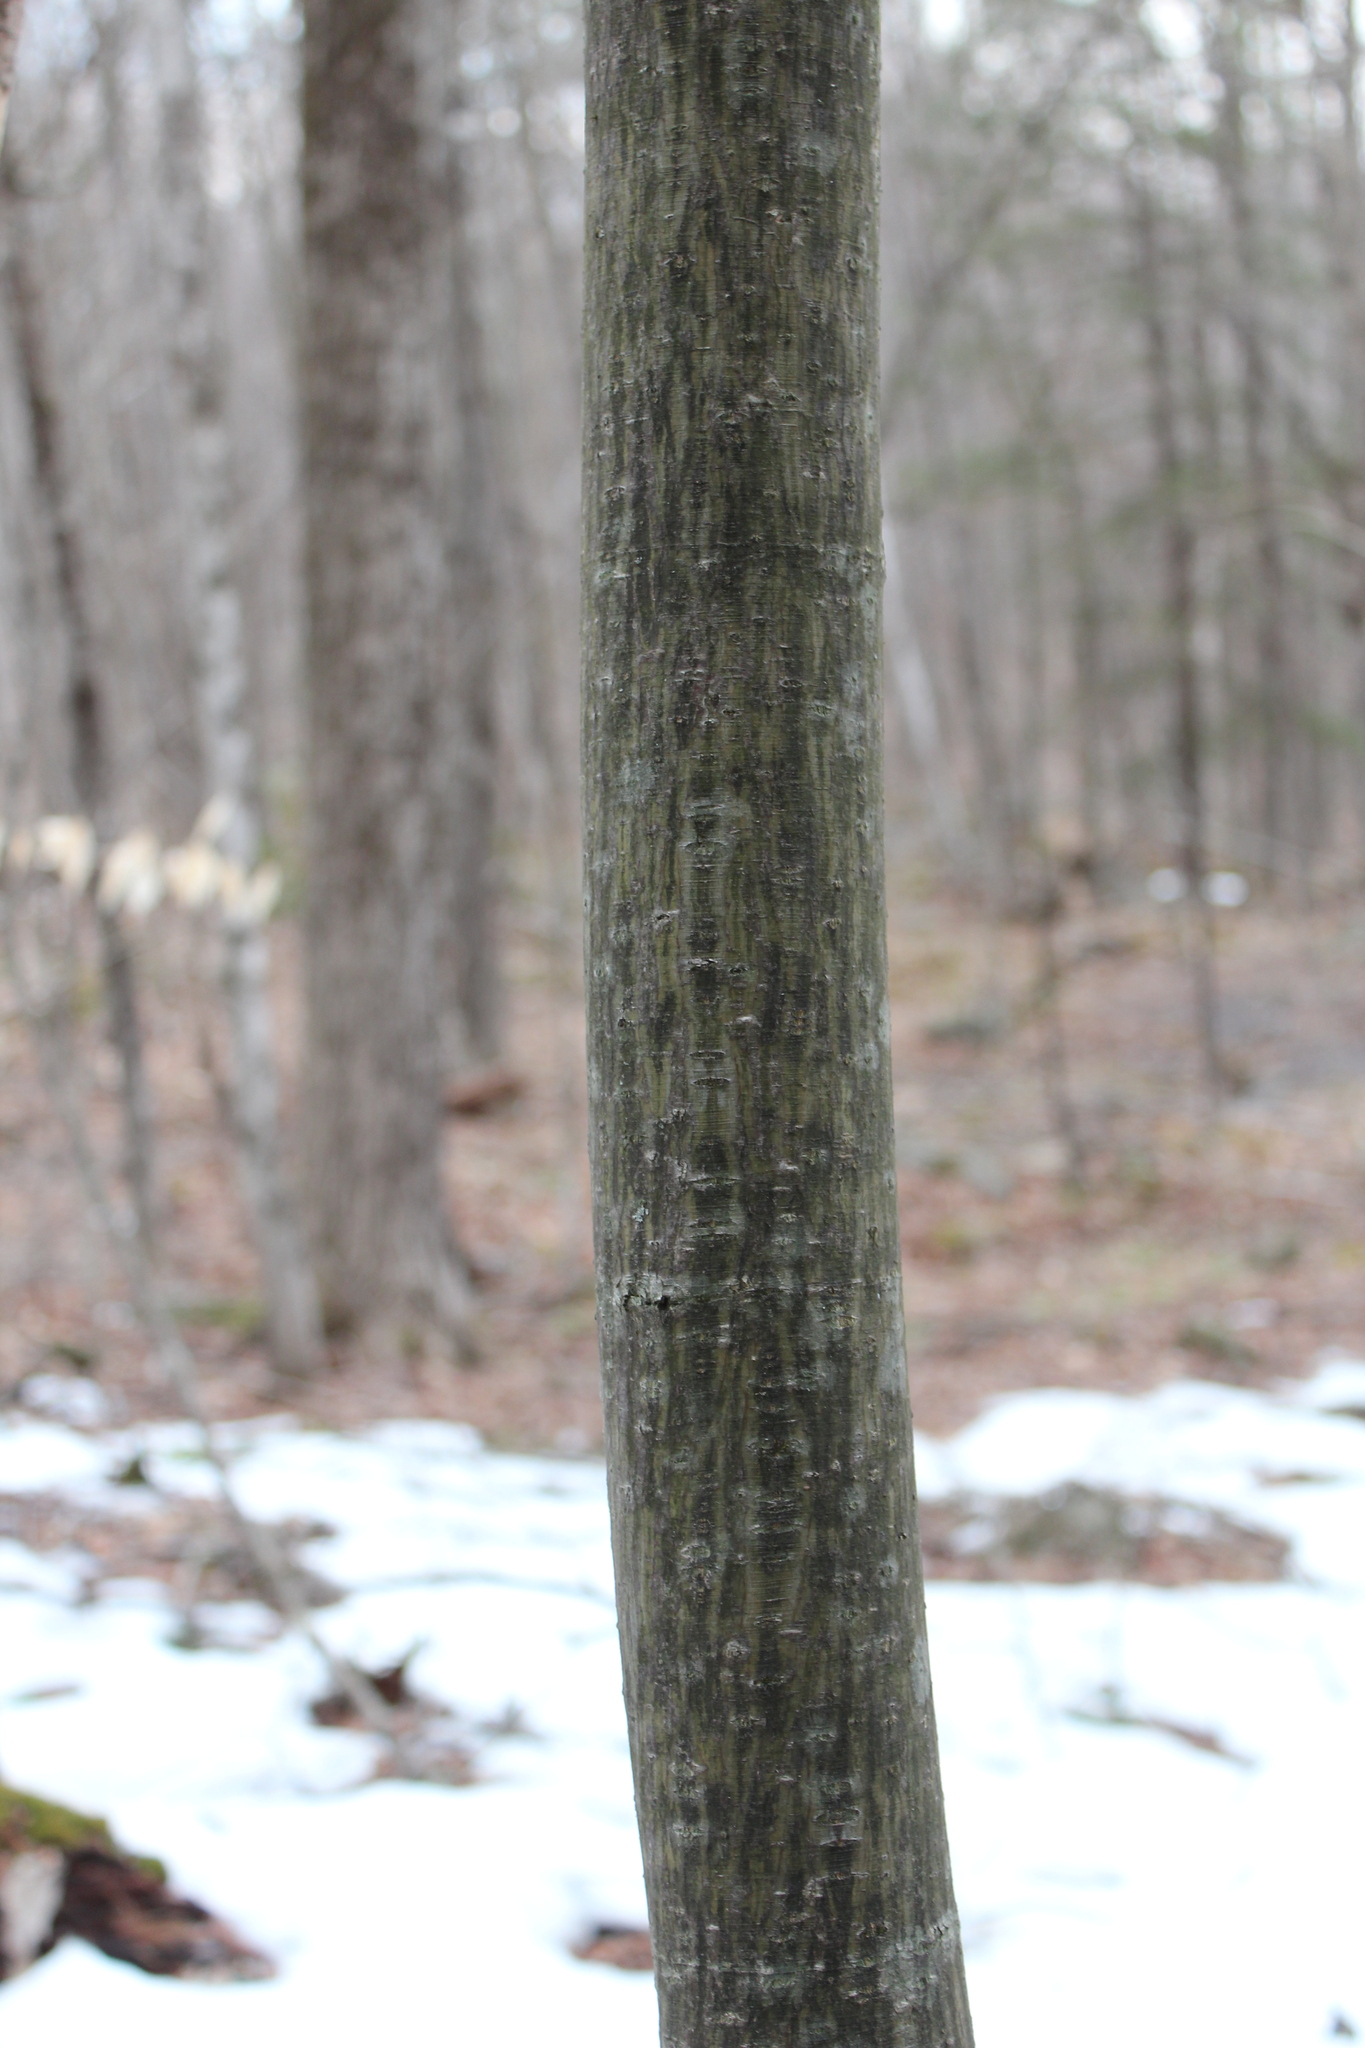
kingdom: Plantae
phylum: Tracheophyta
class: Magnoliopsida
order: Sapindales
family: Sapindaceae
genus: Acer
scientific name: Acer pensylvanicum
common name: Moosewood
